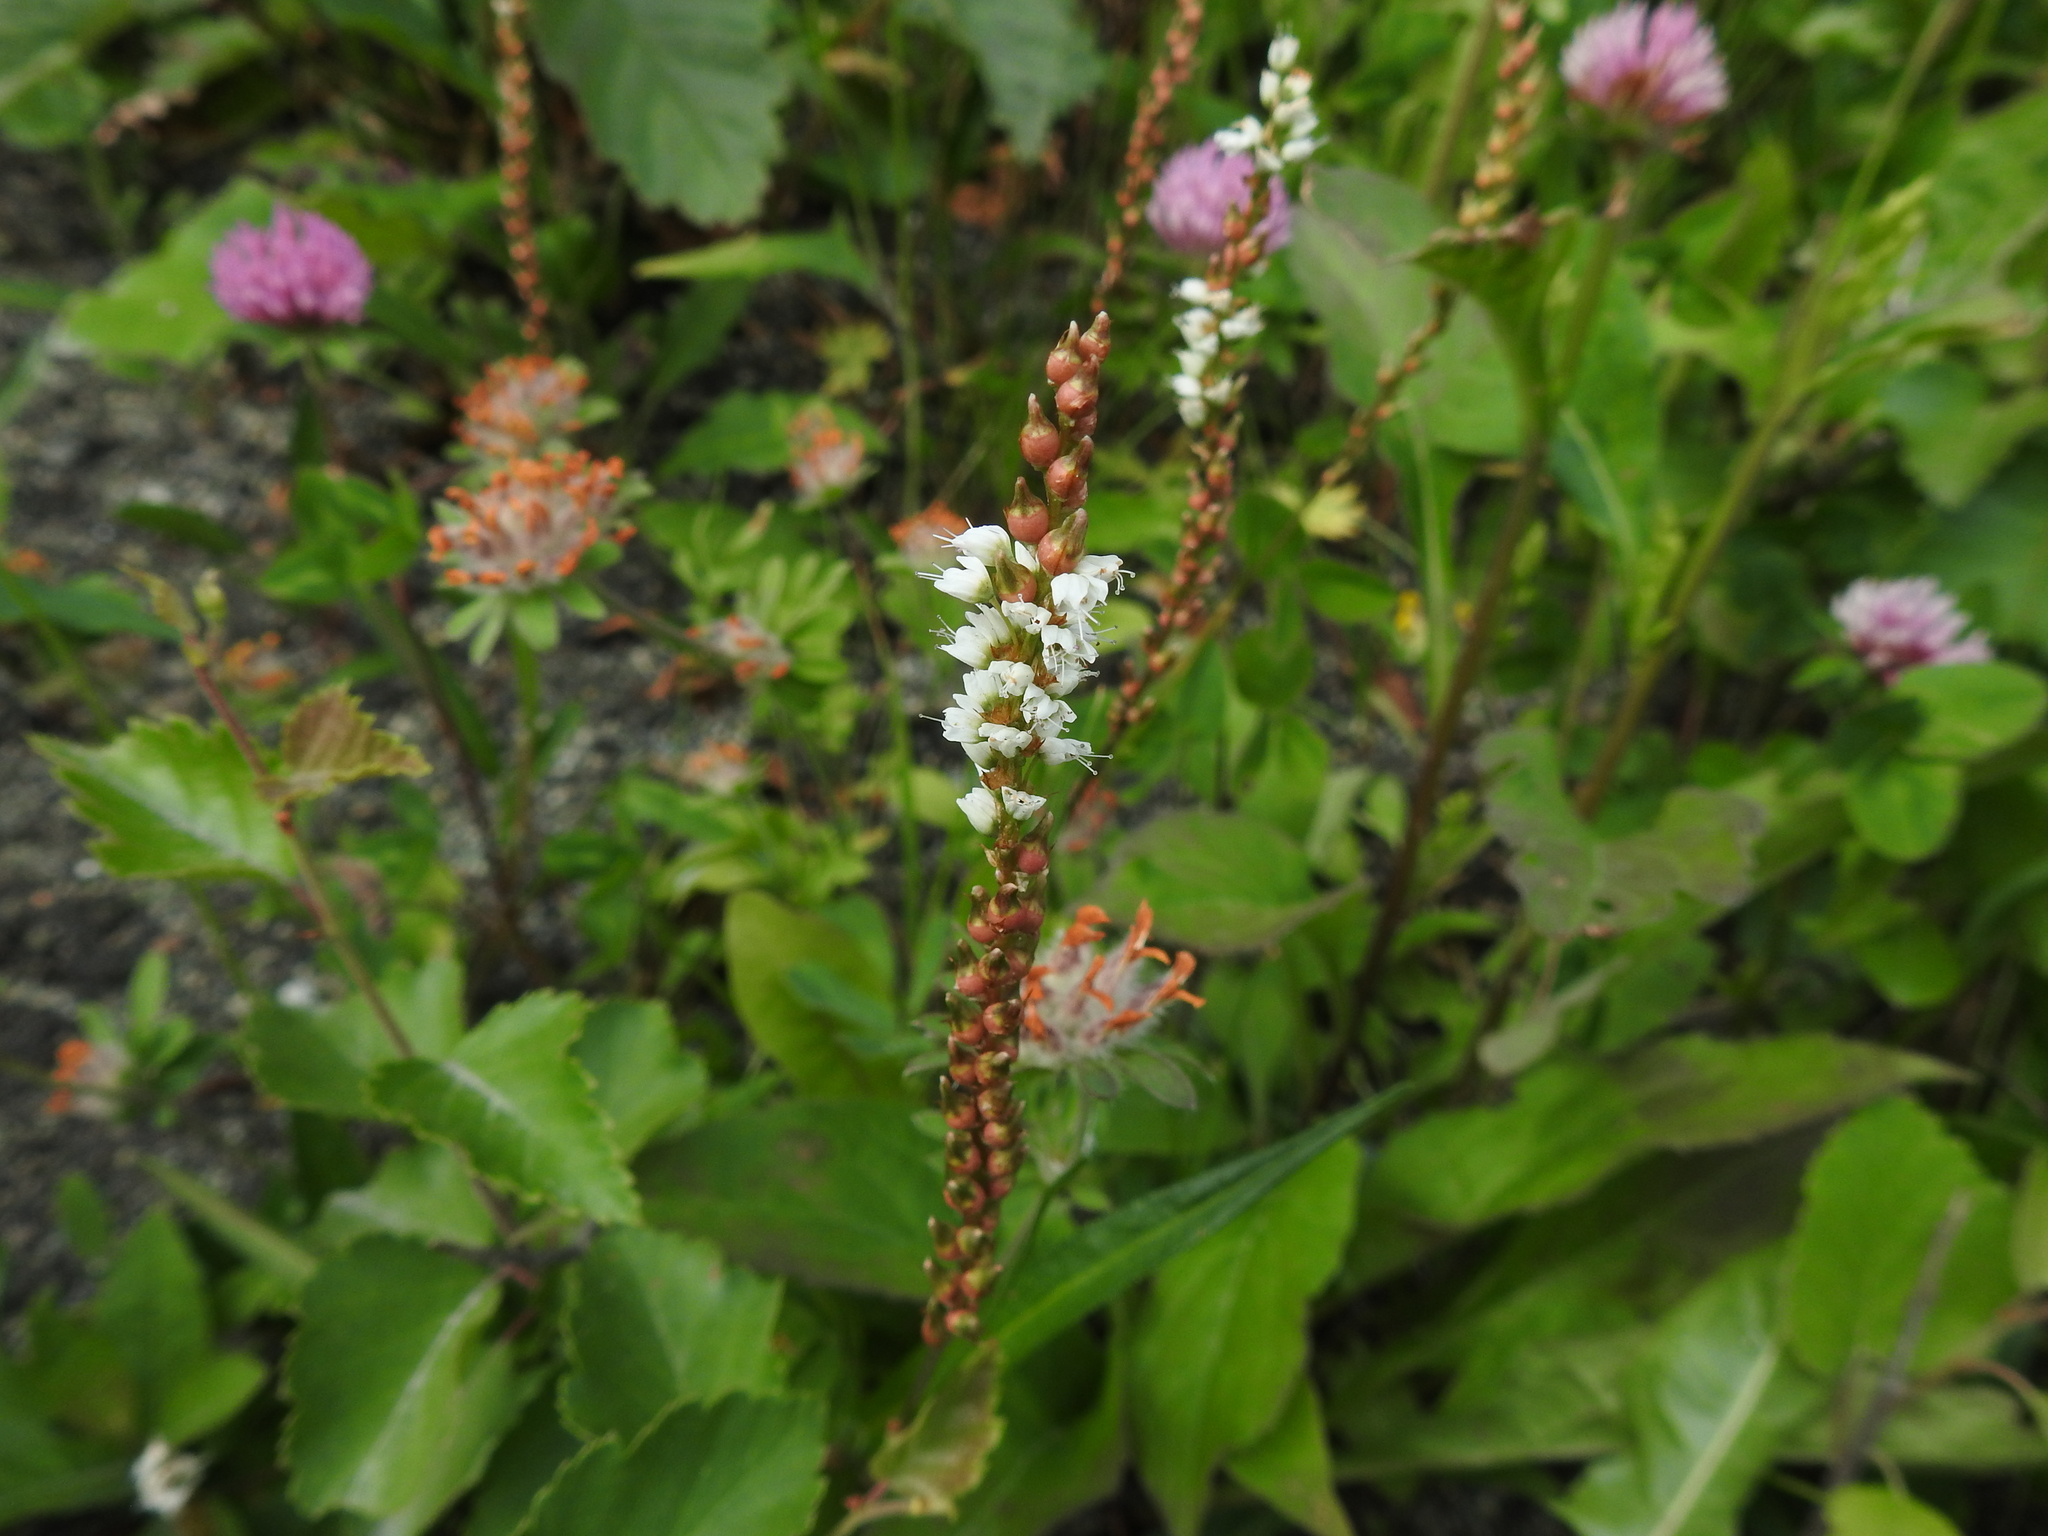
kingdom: Plantae
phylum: Tracheophyta
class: Magnoliopsida
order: Caryophyllales
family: Polygonaceae
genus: Bistorta
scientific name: Bistorta vivipara
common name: Alpine bistort
